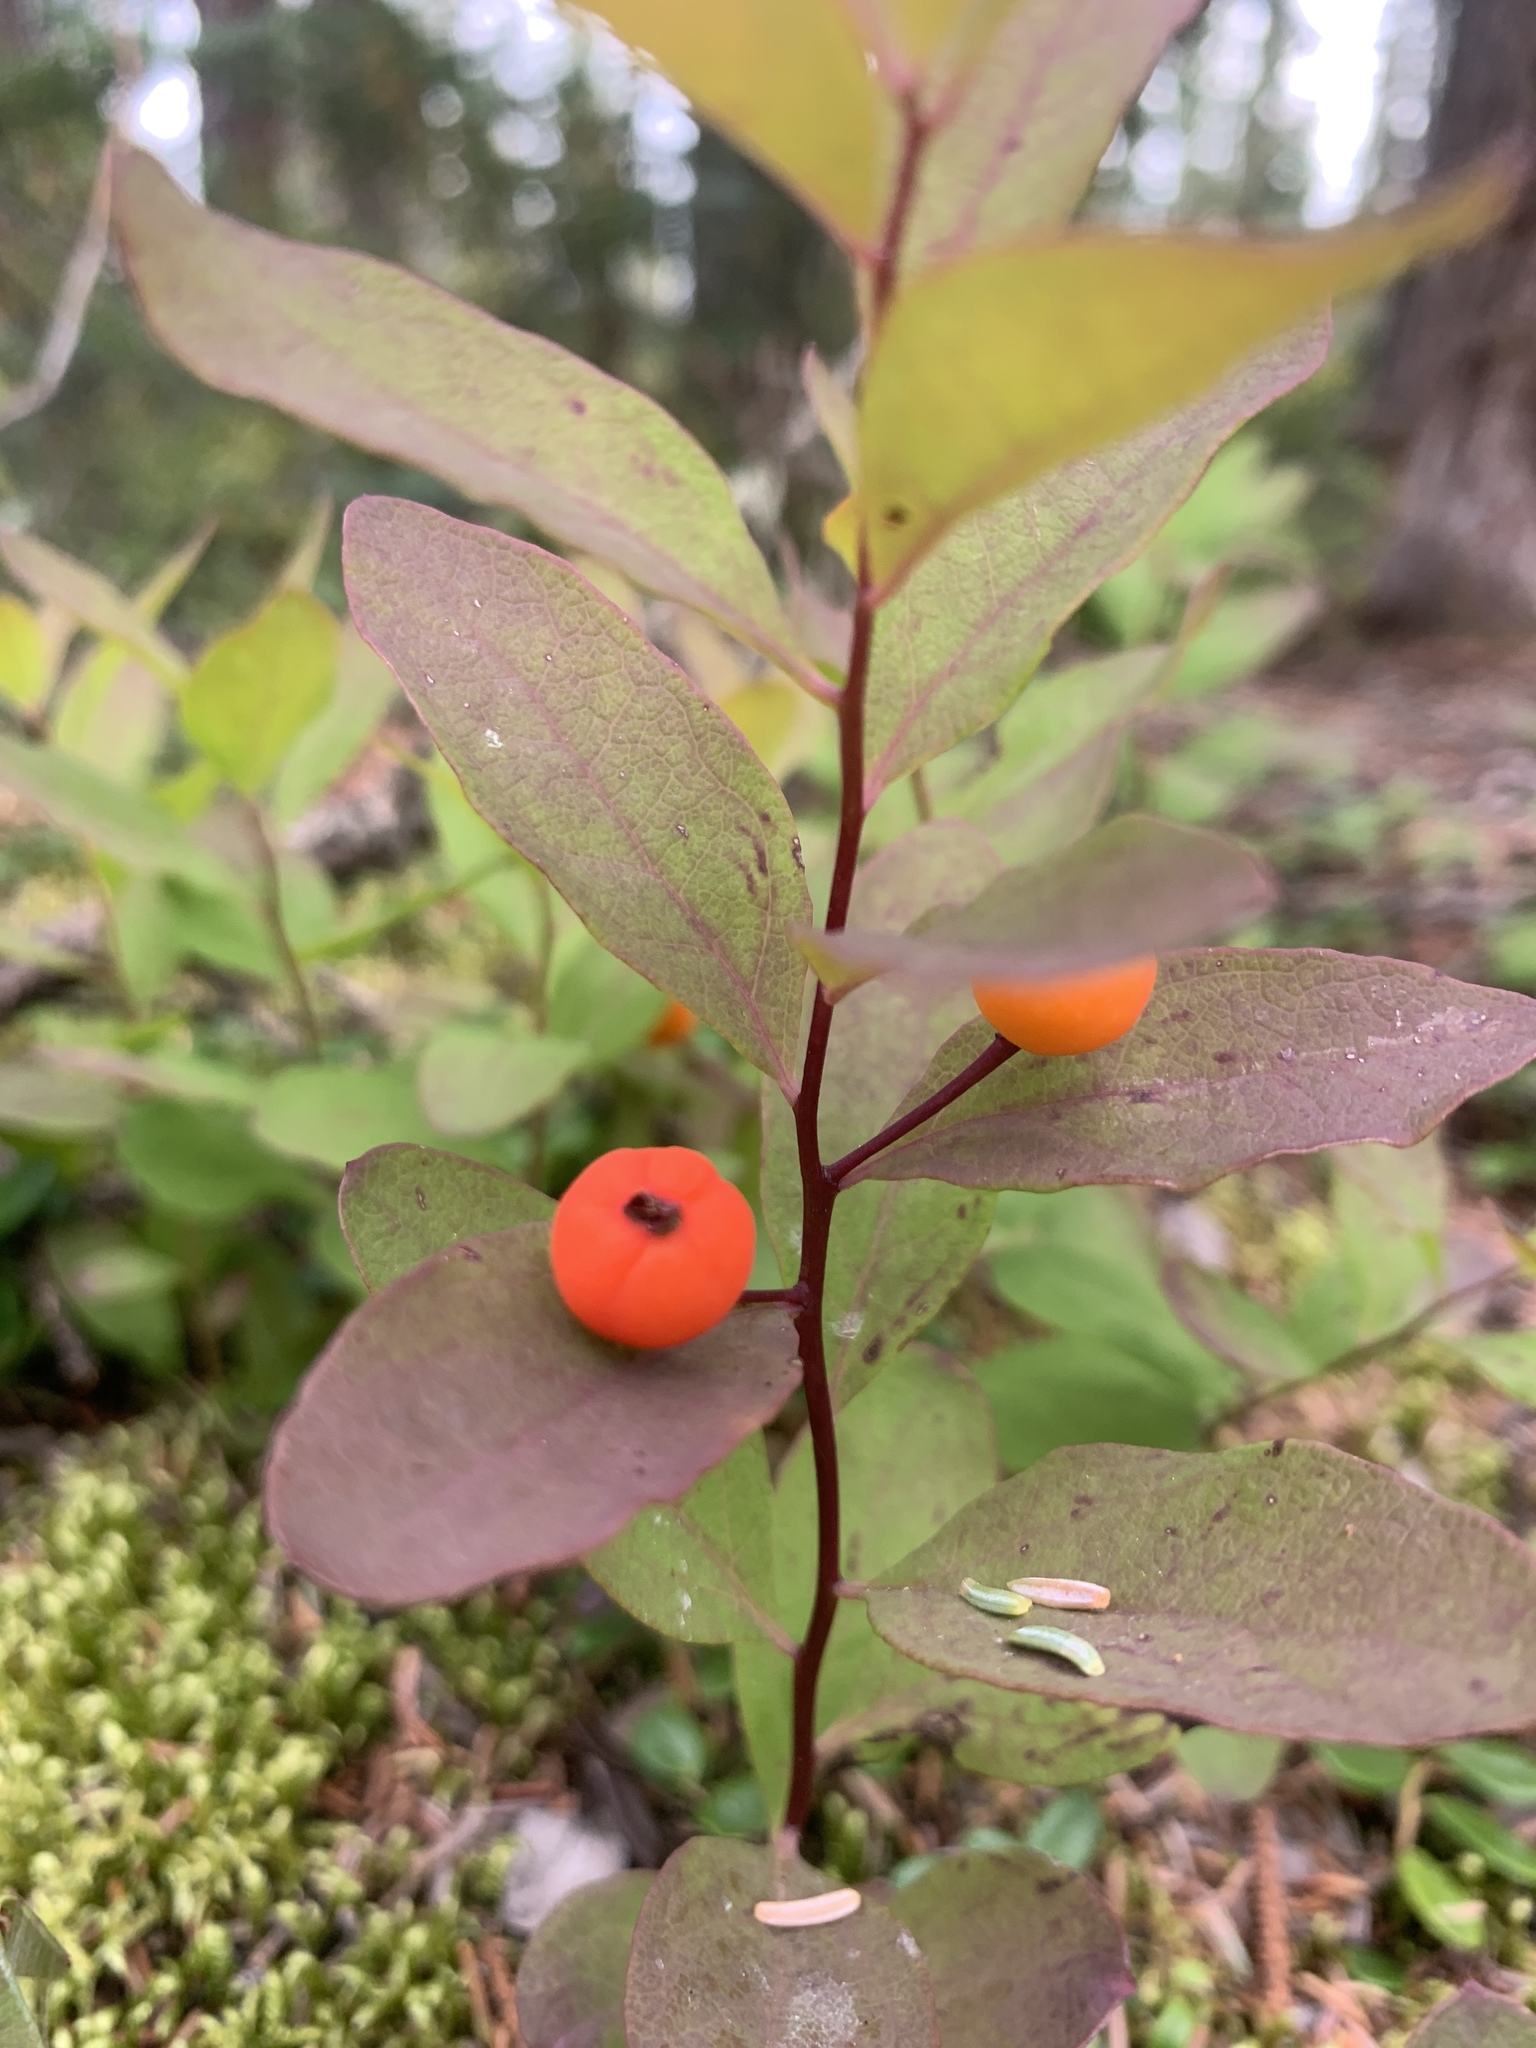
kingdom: Plantae
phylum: Tracheophyta
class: Magnoliopsida
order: Santalales
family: Comandraceae
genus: Geocaulon
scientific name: Geocaulon lividum
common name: Earthberry
